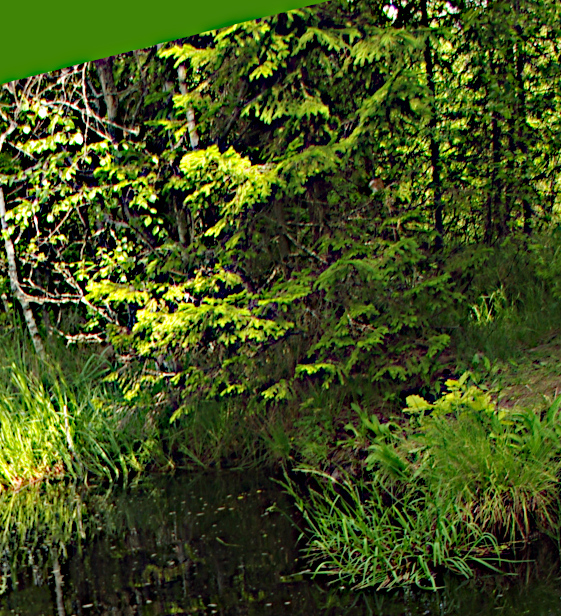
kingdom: Plantae
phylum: Tracheophyta
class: Pinopsida
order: Pinales
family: Pinaceae
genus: Picea
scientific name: Picea abies
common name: Norway spruce
